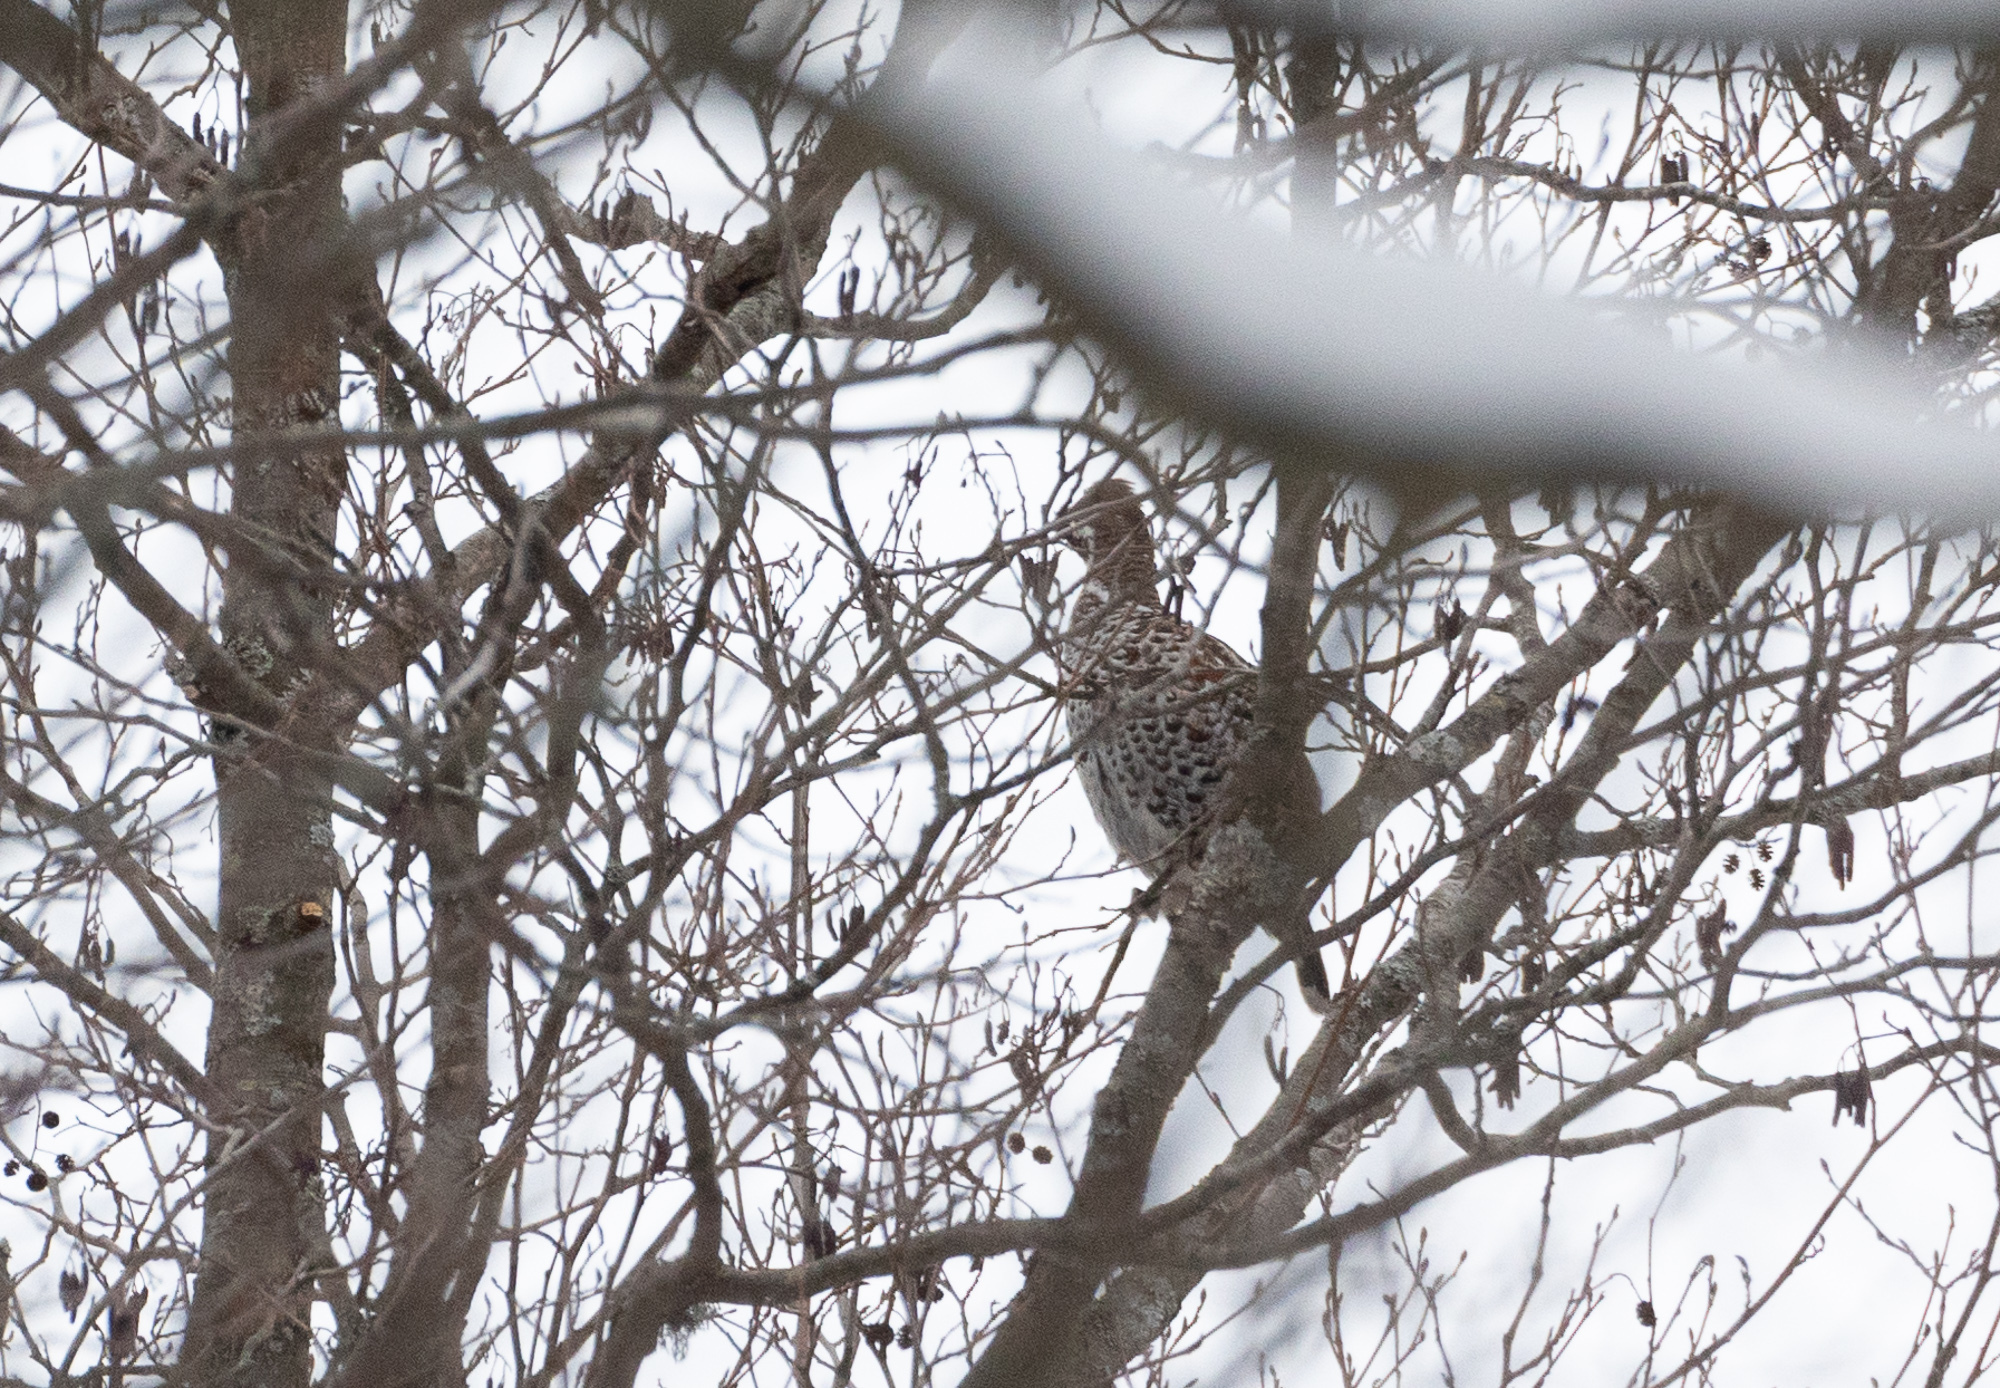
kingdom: Animalia
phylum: Chordata
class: Aves
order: Galliformes
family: Phasianidae
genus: Tetrastes
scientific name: Tetrastes bonasia
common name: Hazel grouse
